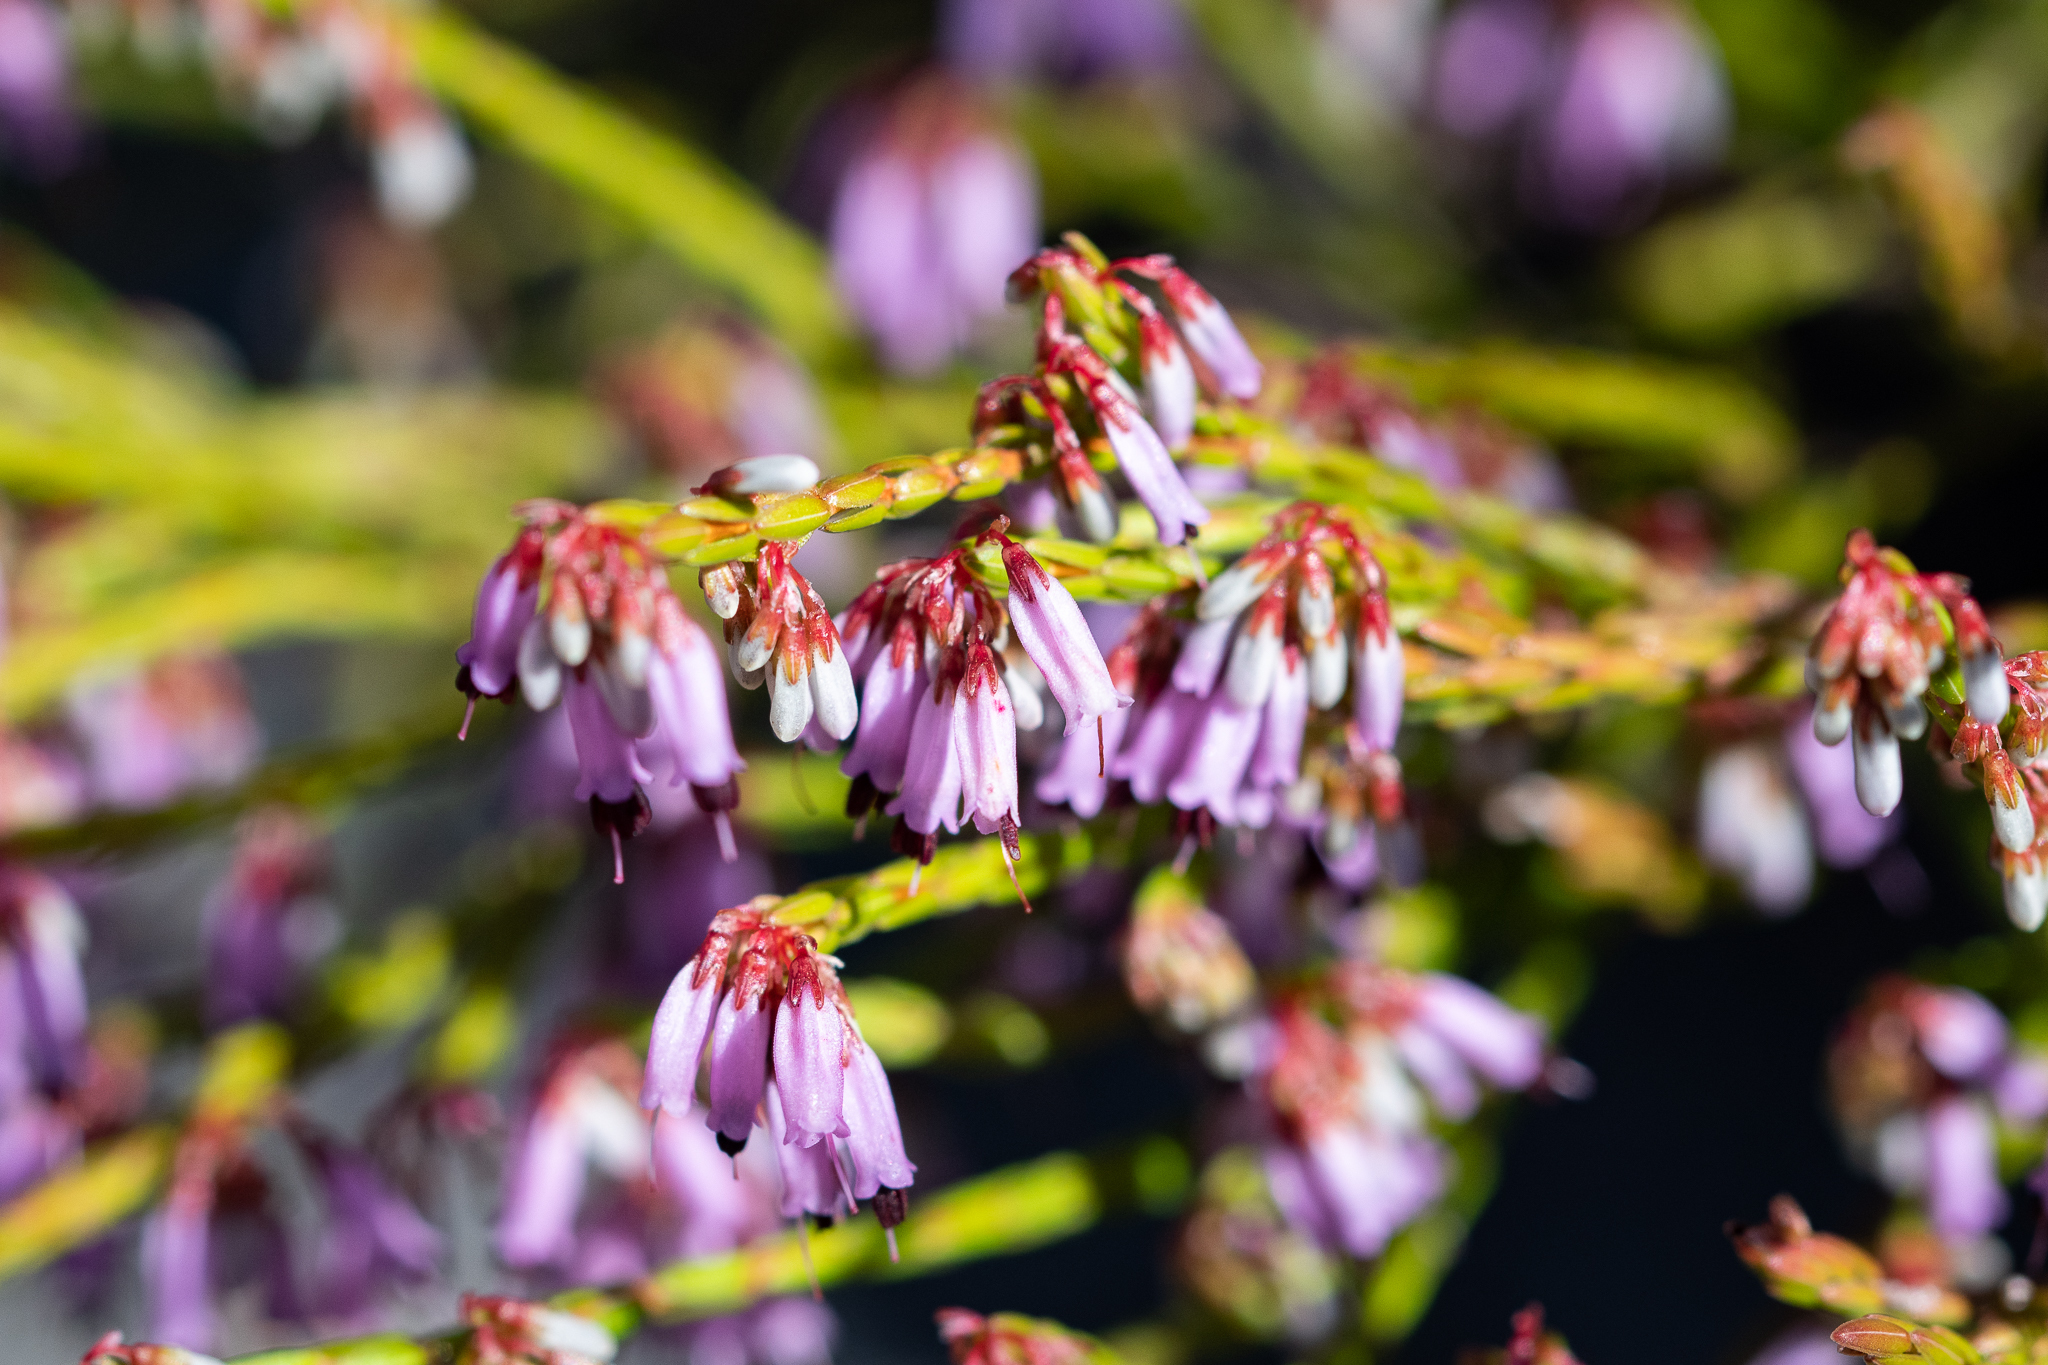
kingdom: Plantae
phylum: Tracheophyta
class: Magnoliopsida
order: Ericales
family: Ericaceae
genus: Erica
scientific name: Erica equisetifolia
